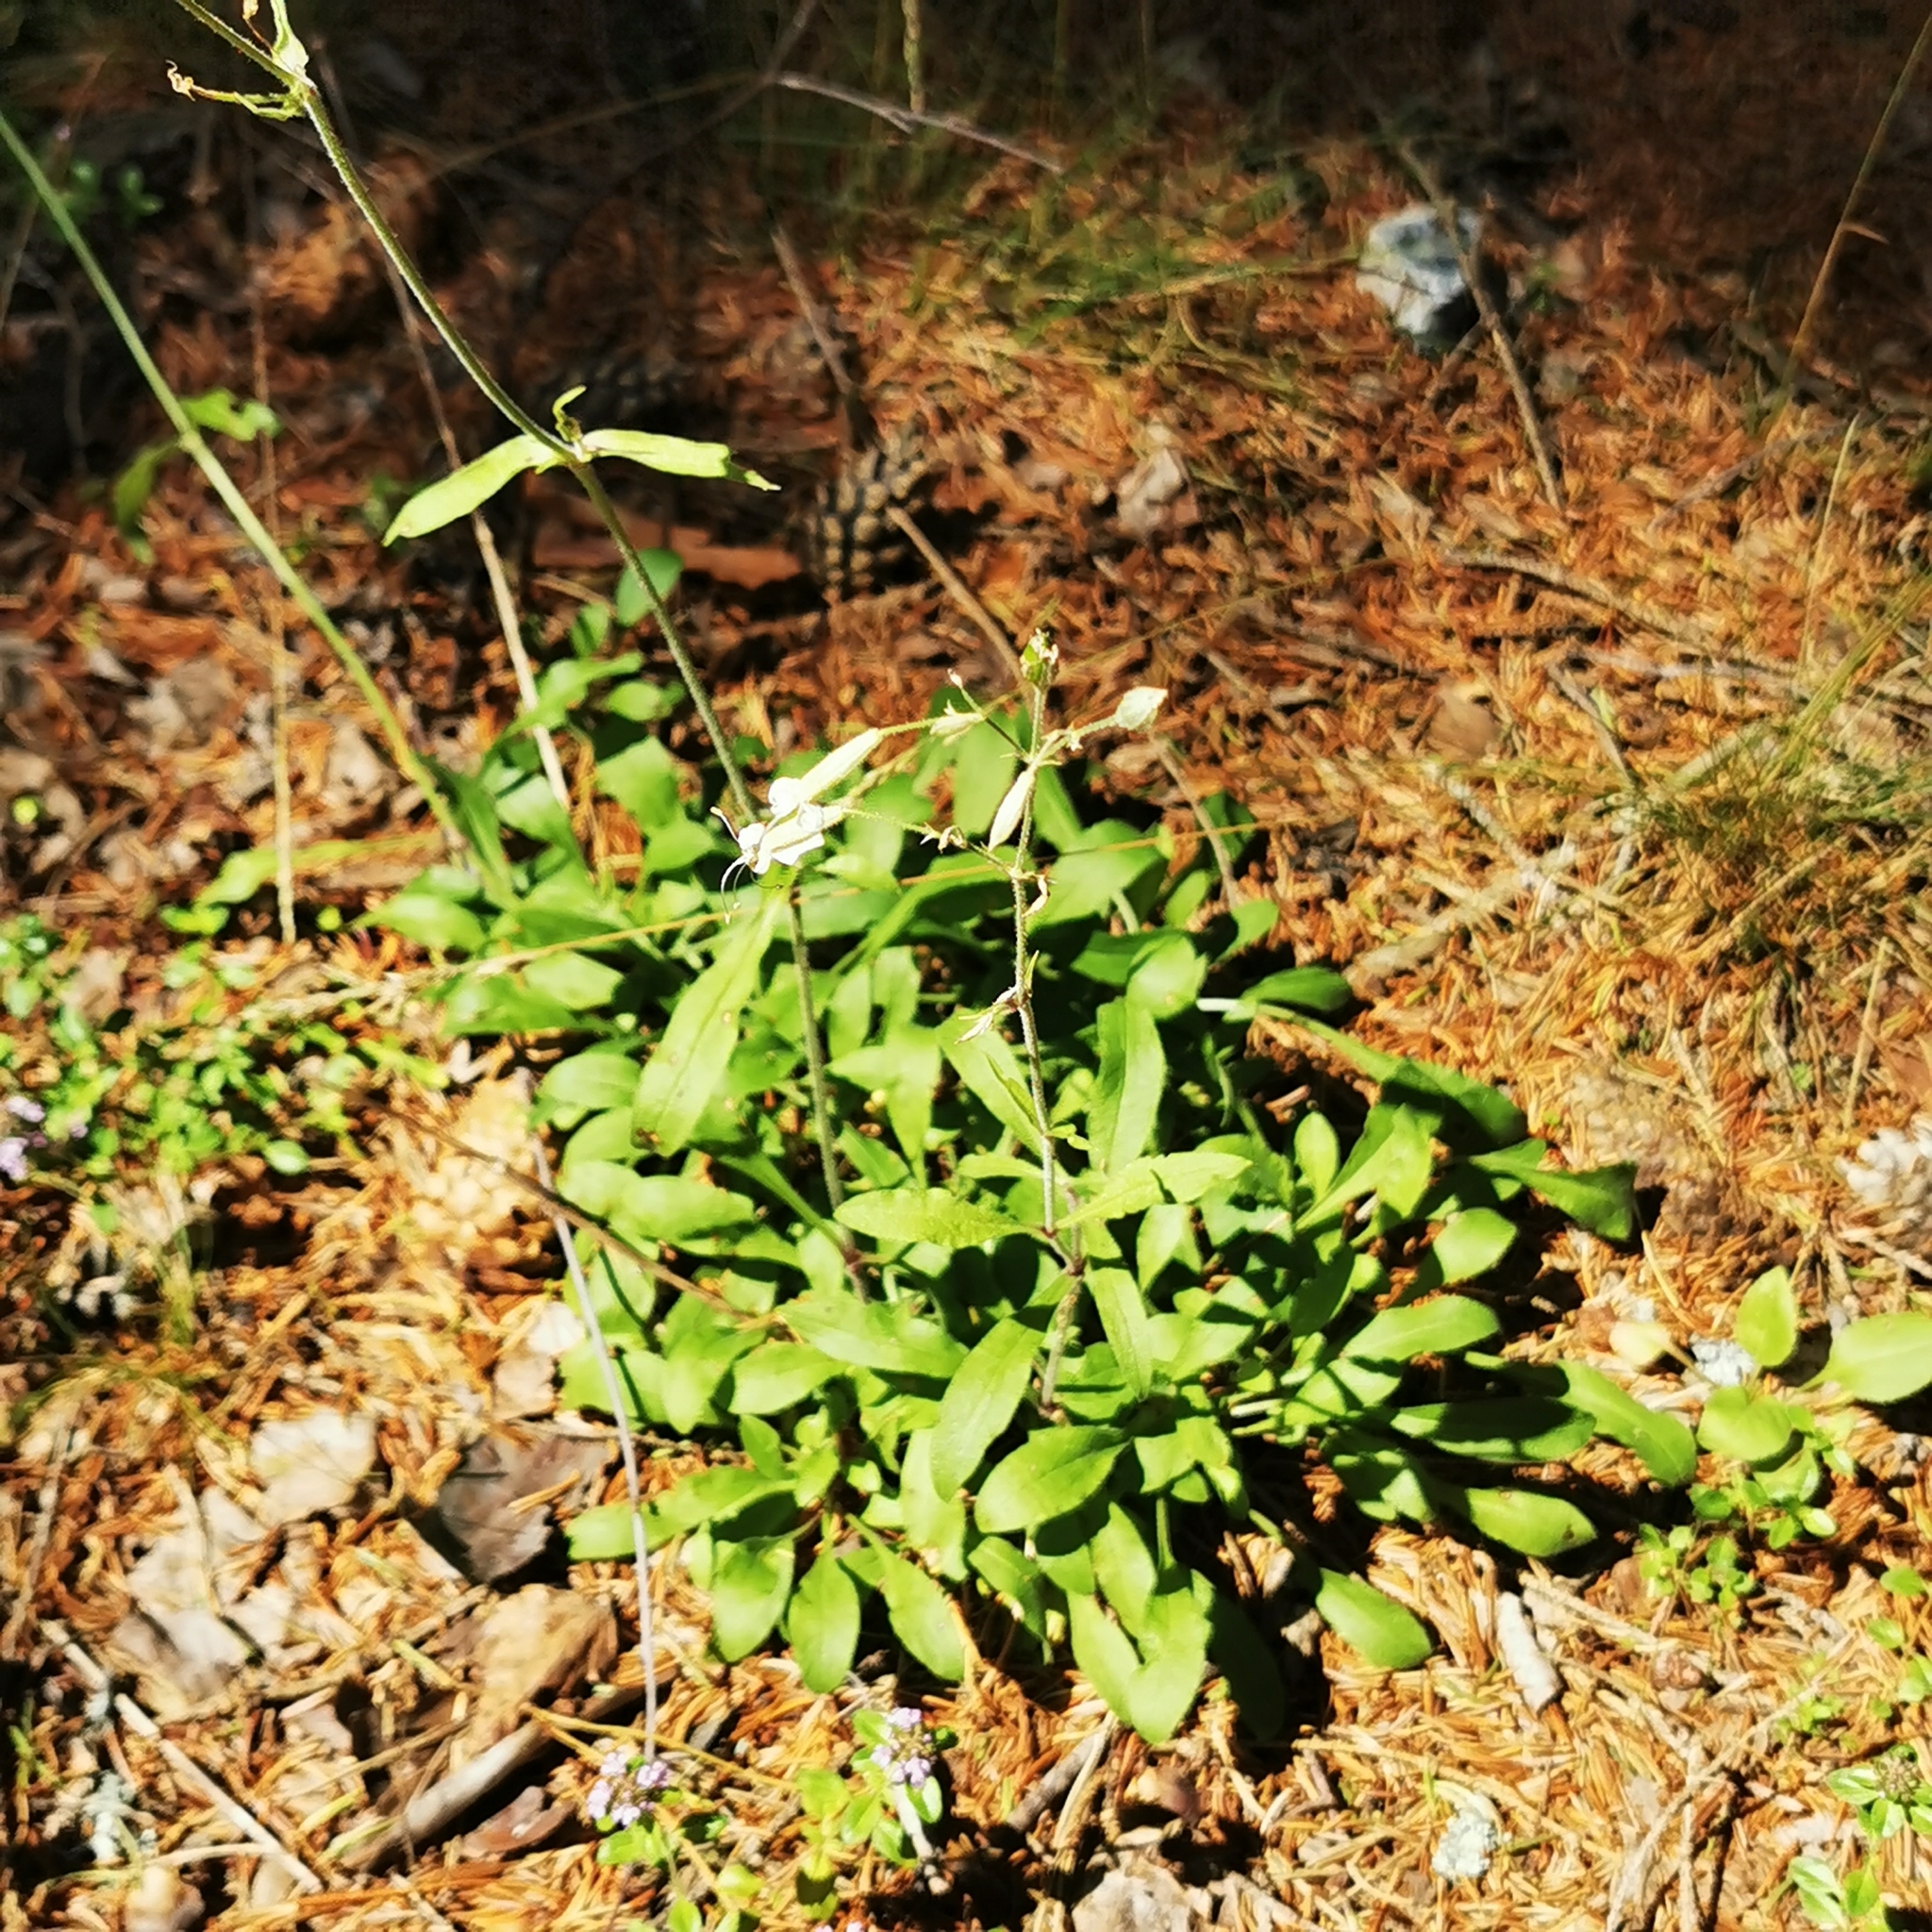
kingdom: Plantae
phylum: Tracheophyta
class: Magnoliopsida
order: Caryophyllales
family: Caryophyllaceae
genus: Silene
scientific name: Silene nutans
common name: Nottingham catchfly
